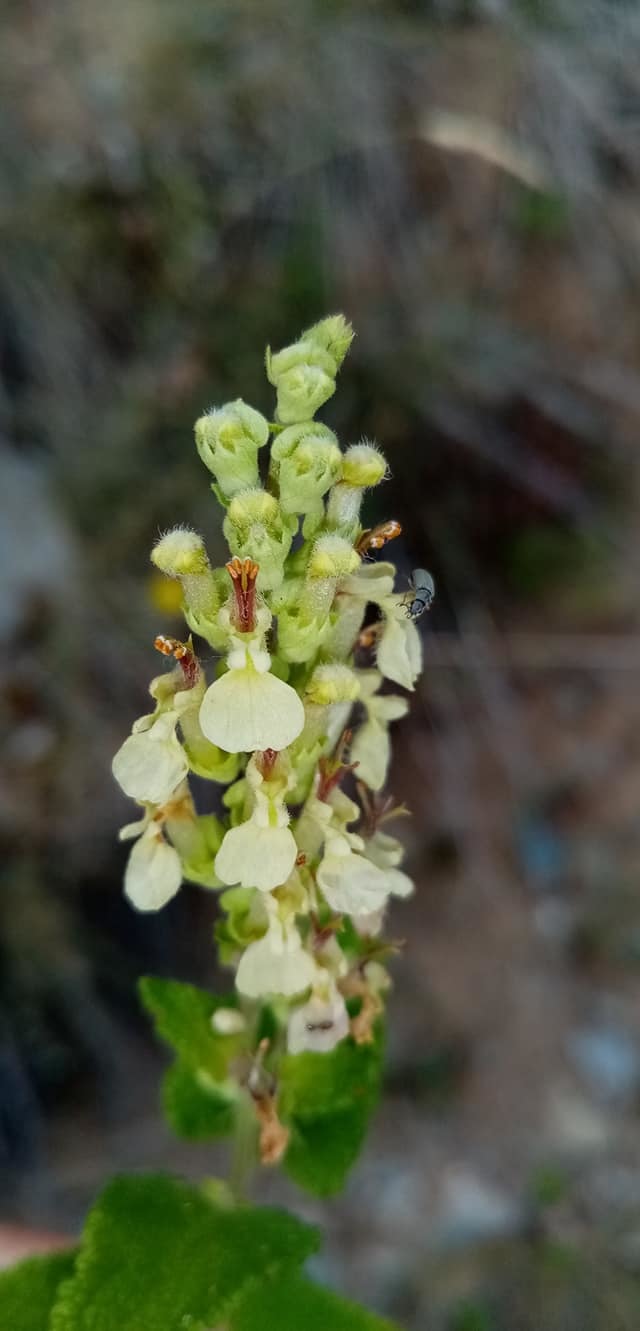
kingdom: Plantae
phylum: Tracheophyta
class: Magnoliopsida
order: Lamiales
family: Lamiaceae
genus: Teucrium
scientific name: Teucrium scorodonia
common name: Woodland germander
